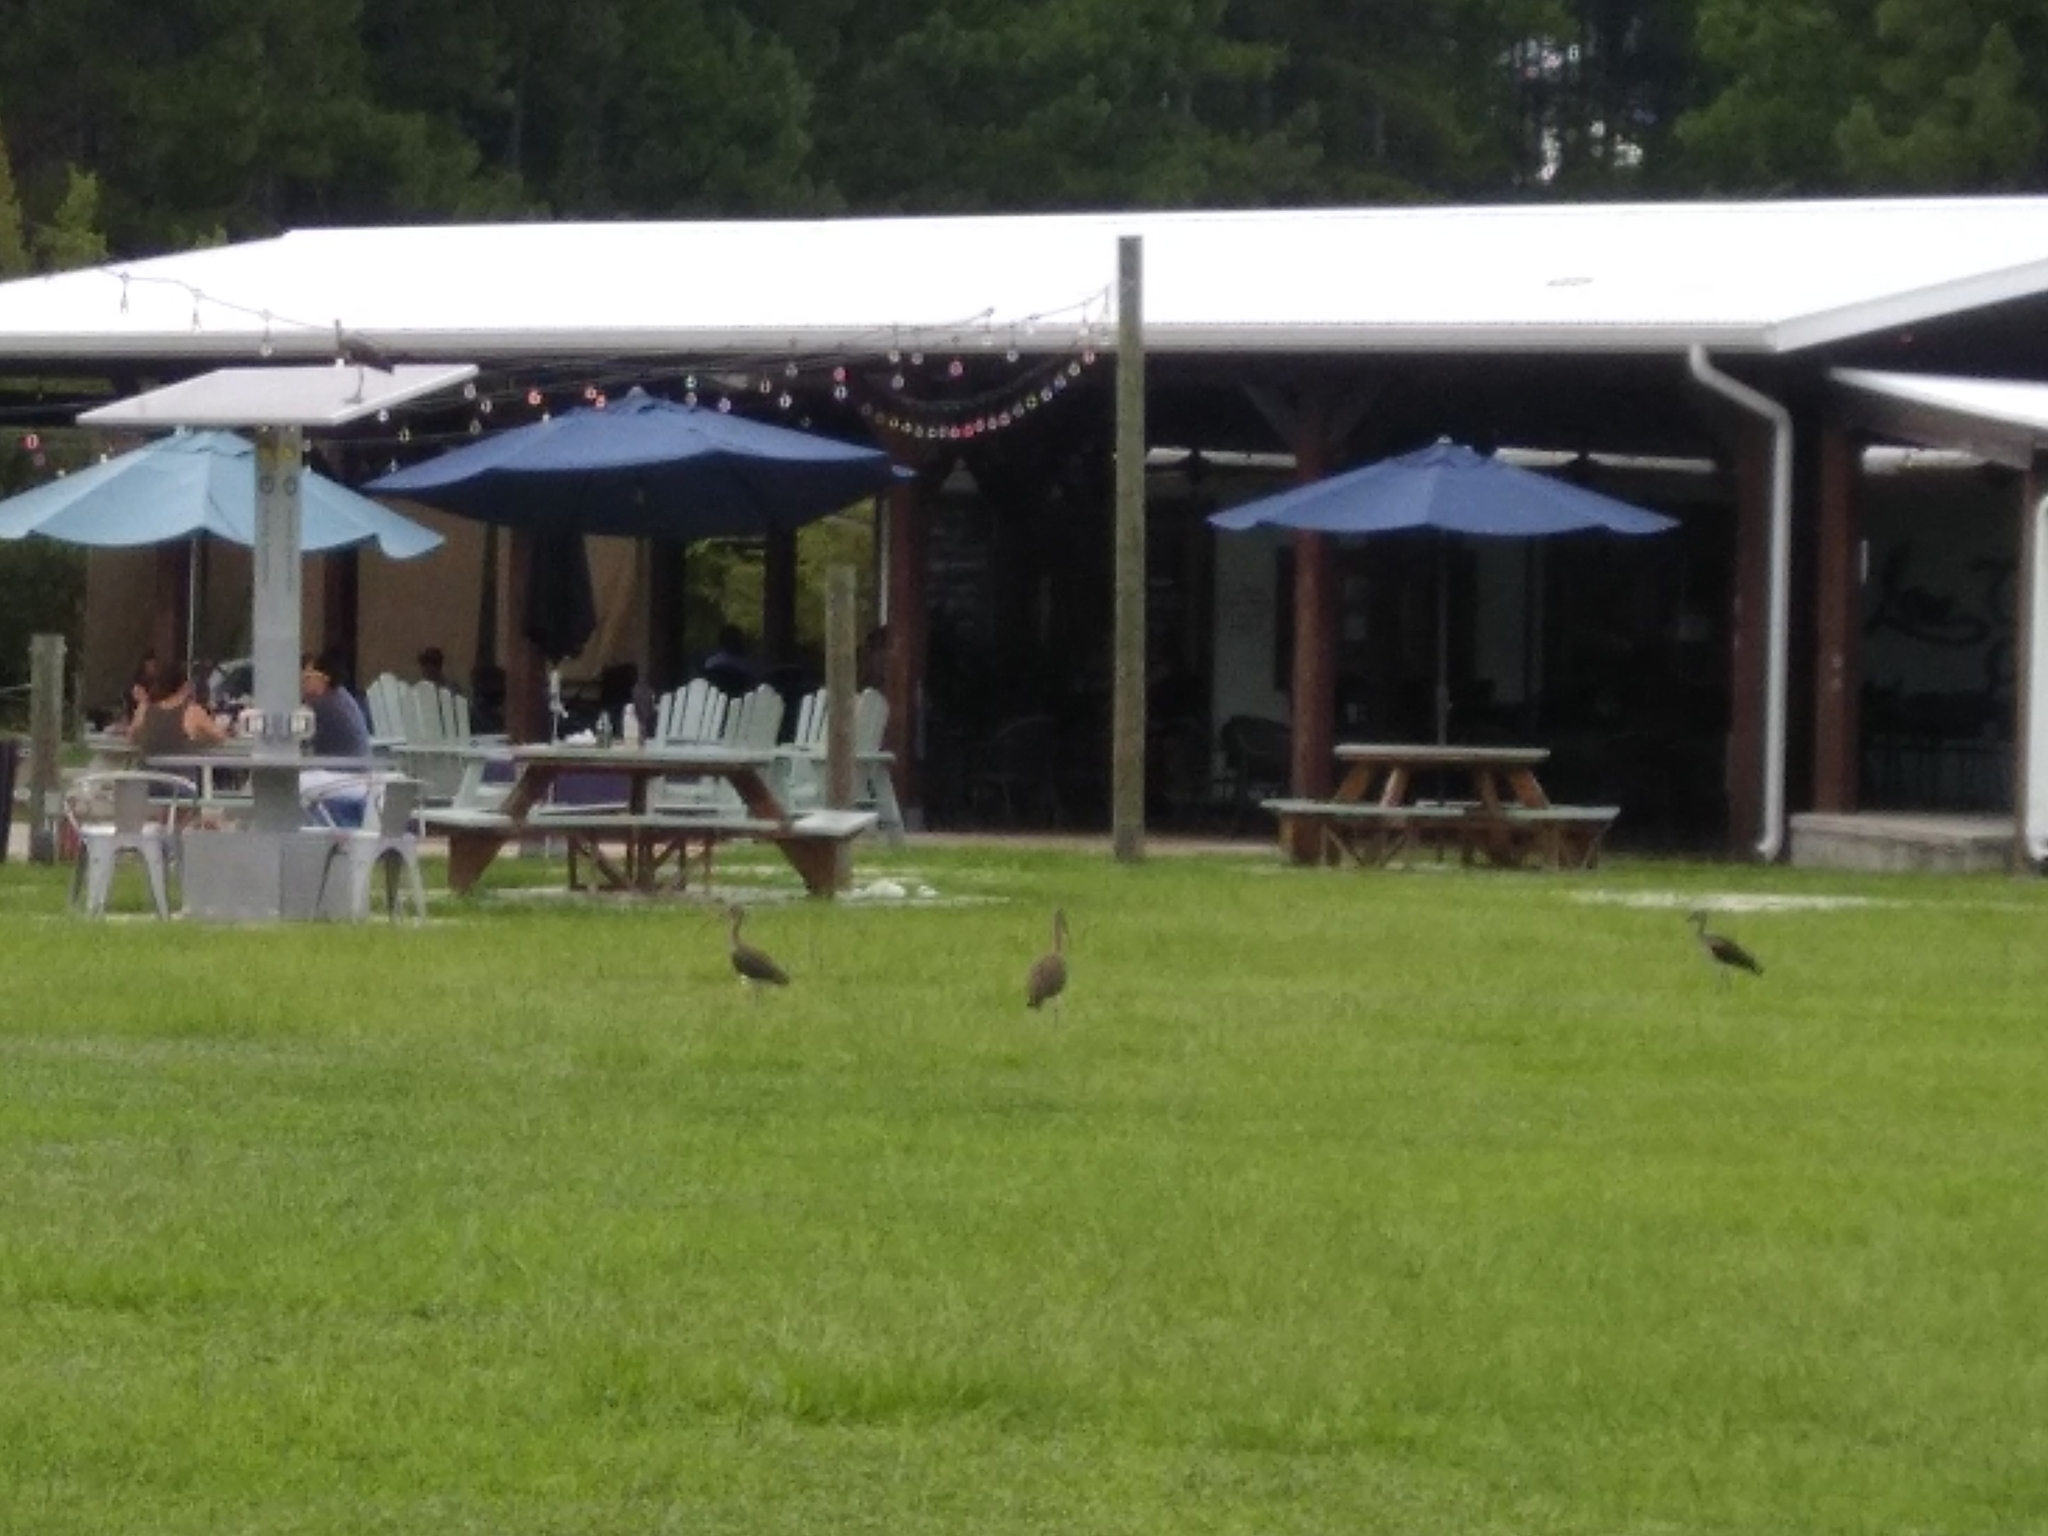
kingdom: Animalia
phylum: Chordata
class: Aves
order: Pelecaniformes
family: Threskiornithidae
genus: Eudocimus
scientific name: Eudocimus albus
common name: White ibis
